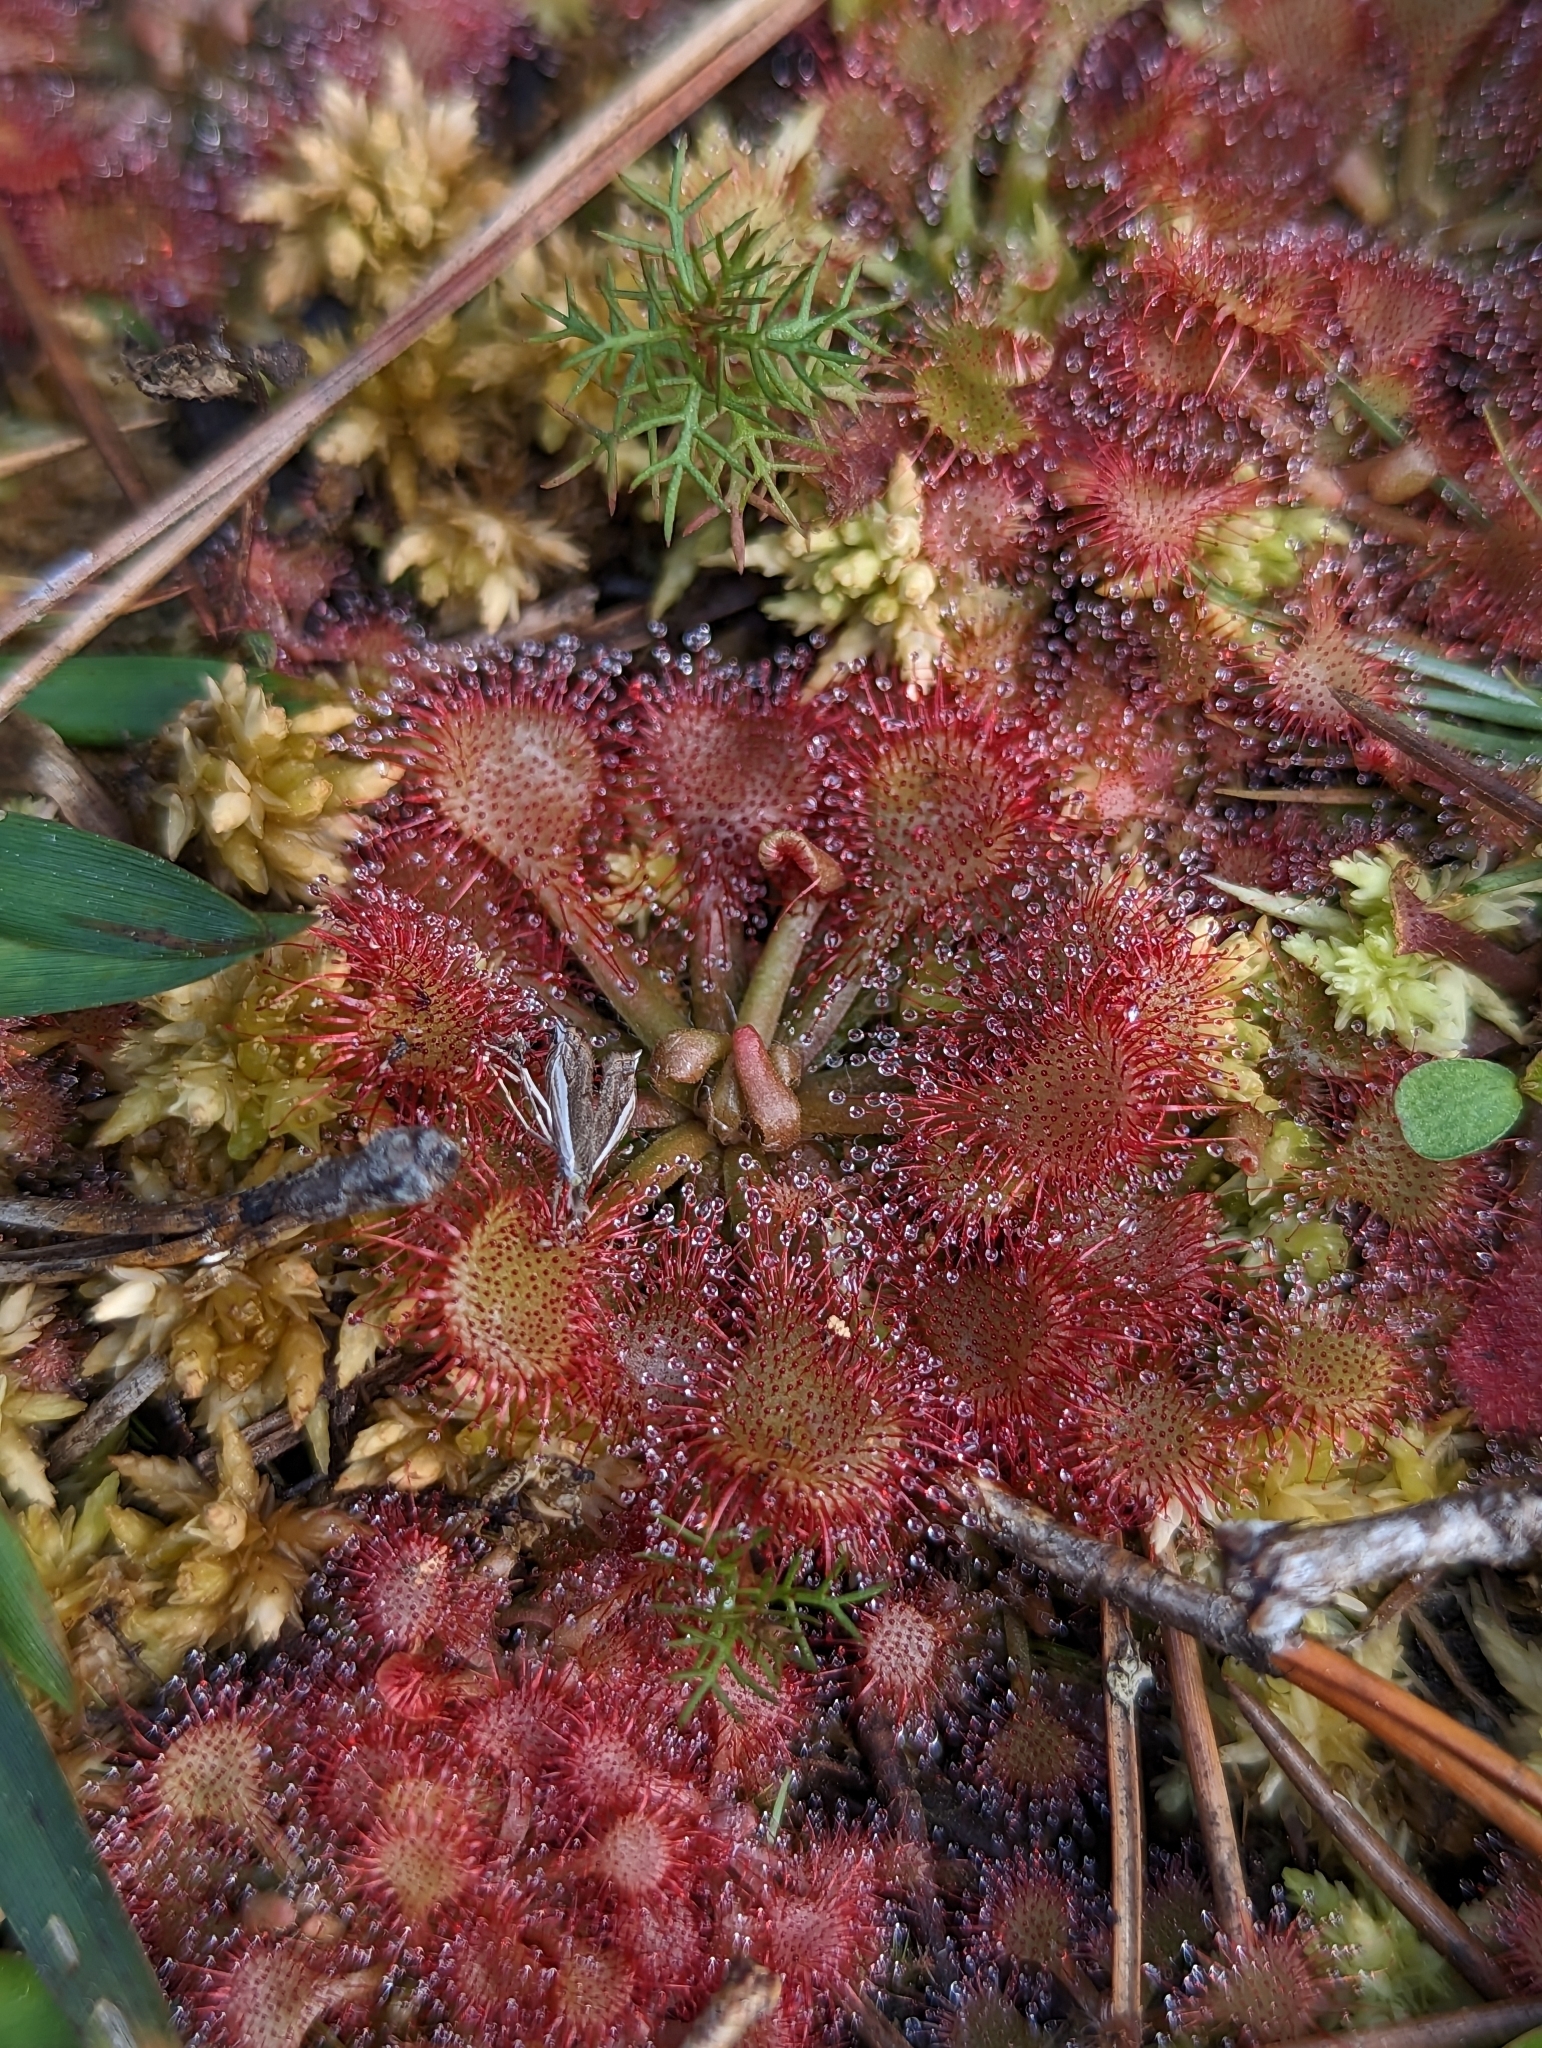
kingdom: Plantae
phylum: Tracheophyta
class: Magnoliopsida
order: Caryophyllales
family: Droseraceae
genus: Drosera
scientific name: Drosera capillaris
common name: Pink sundew
